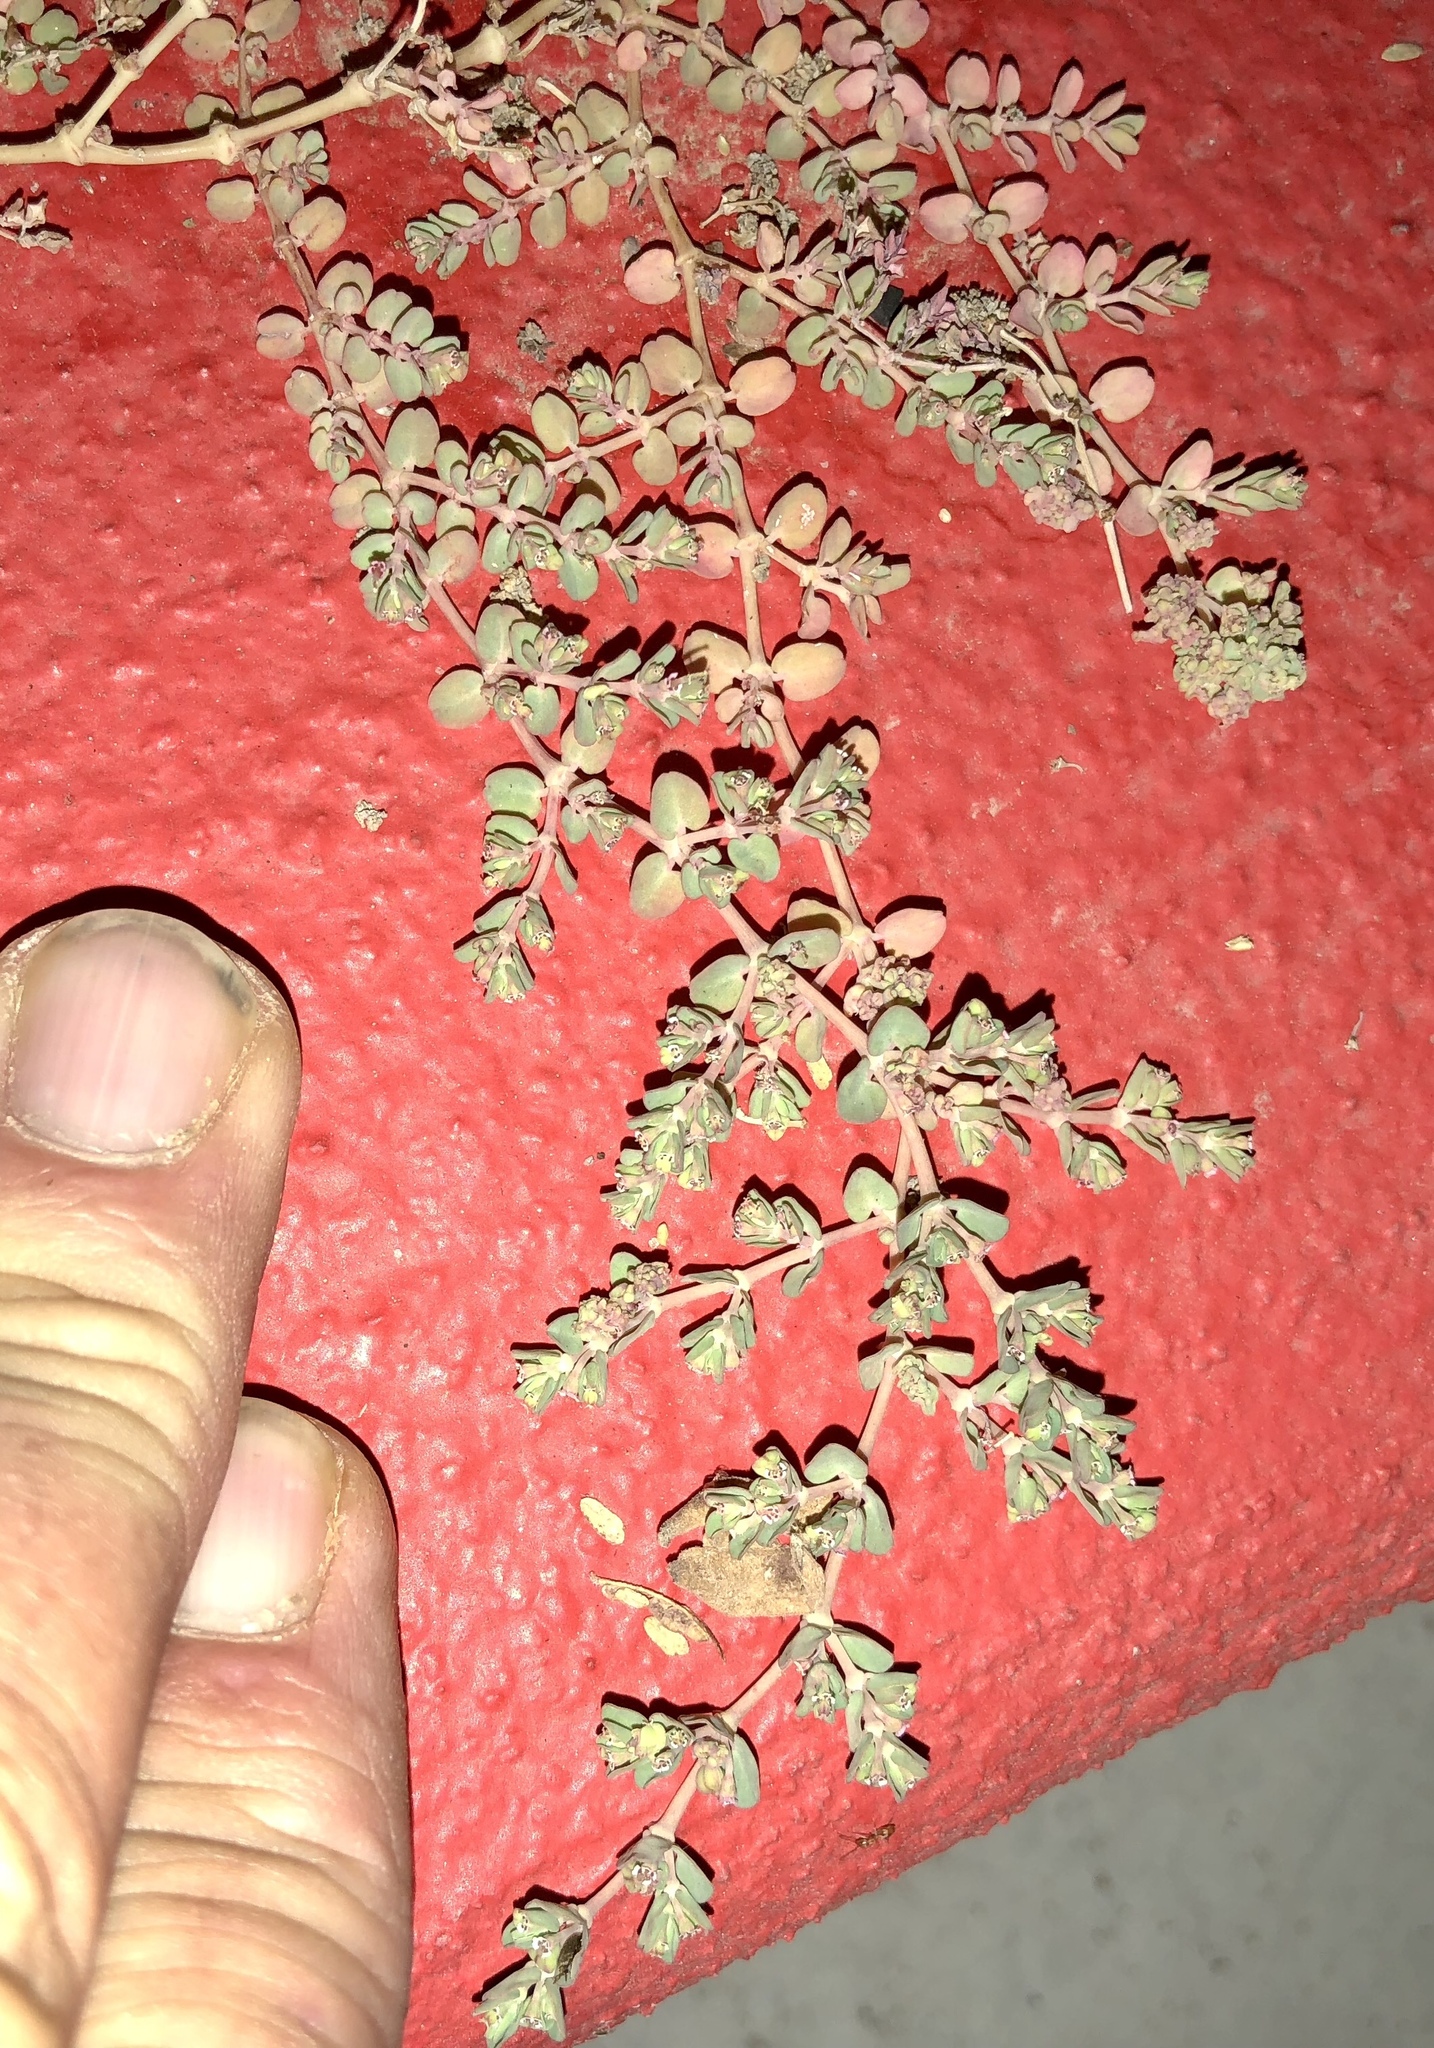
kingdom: Plantae
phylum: Tracheophyta
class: Magnoliopsida
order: Malpighiales
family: Euphorbiaceae
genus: Euphorbia
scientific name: Euphorbia serpens
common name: Matted sandmat
